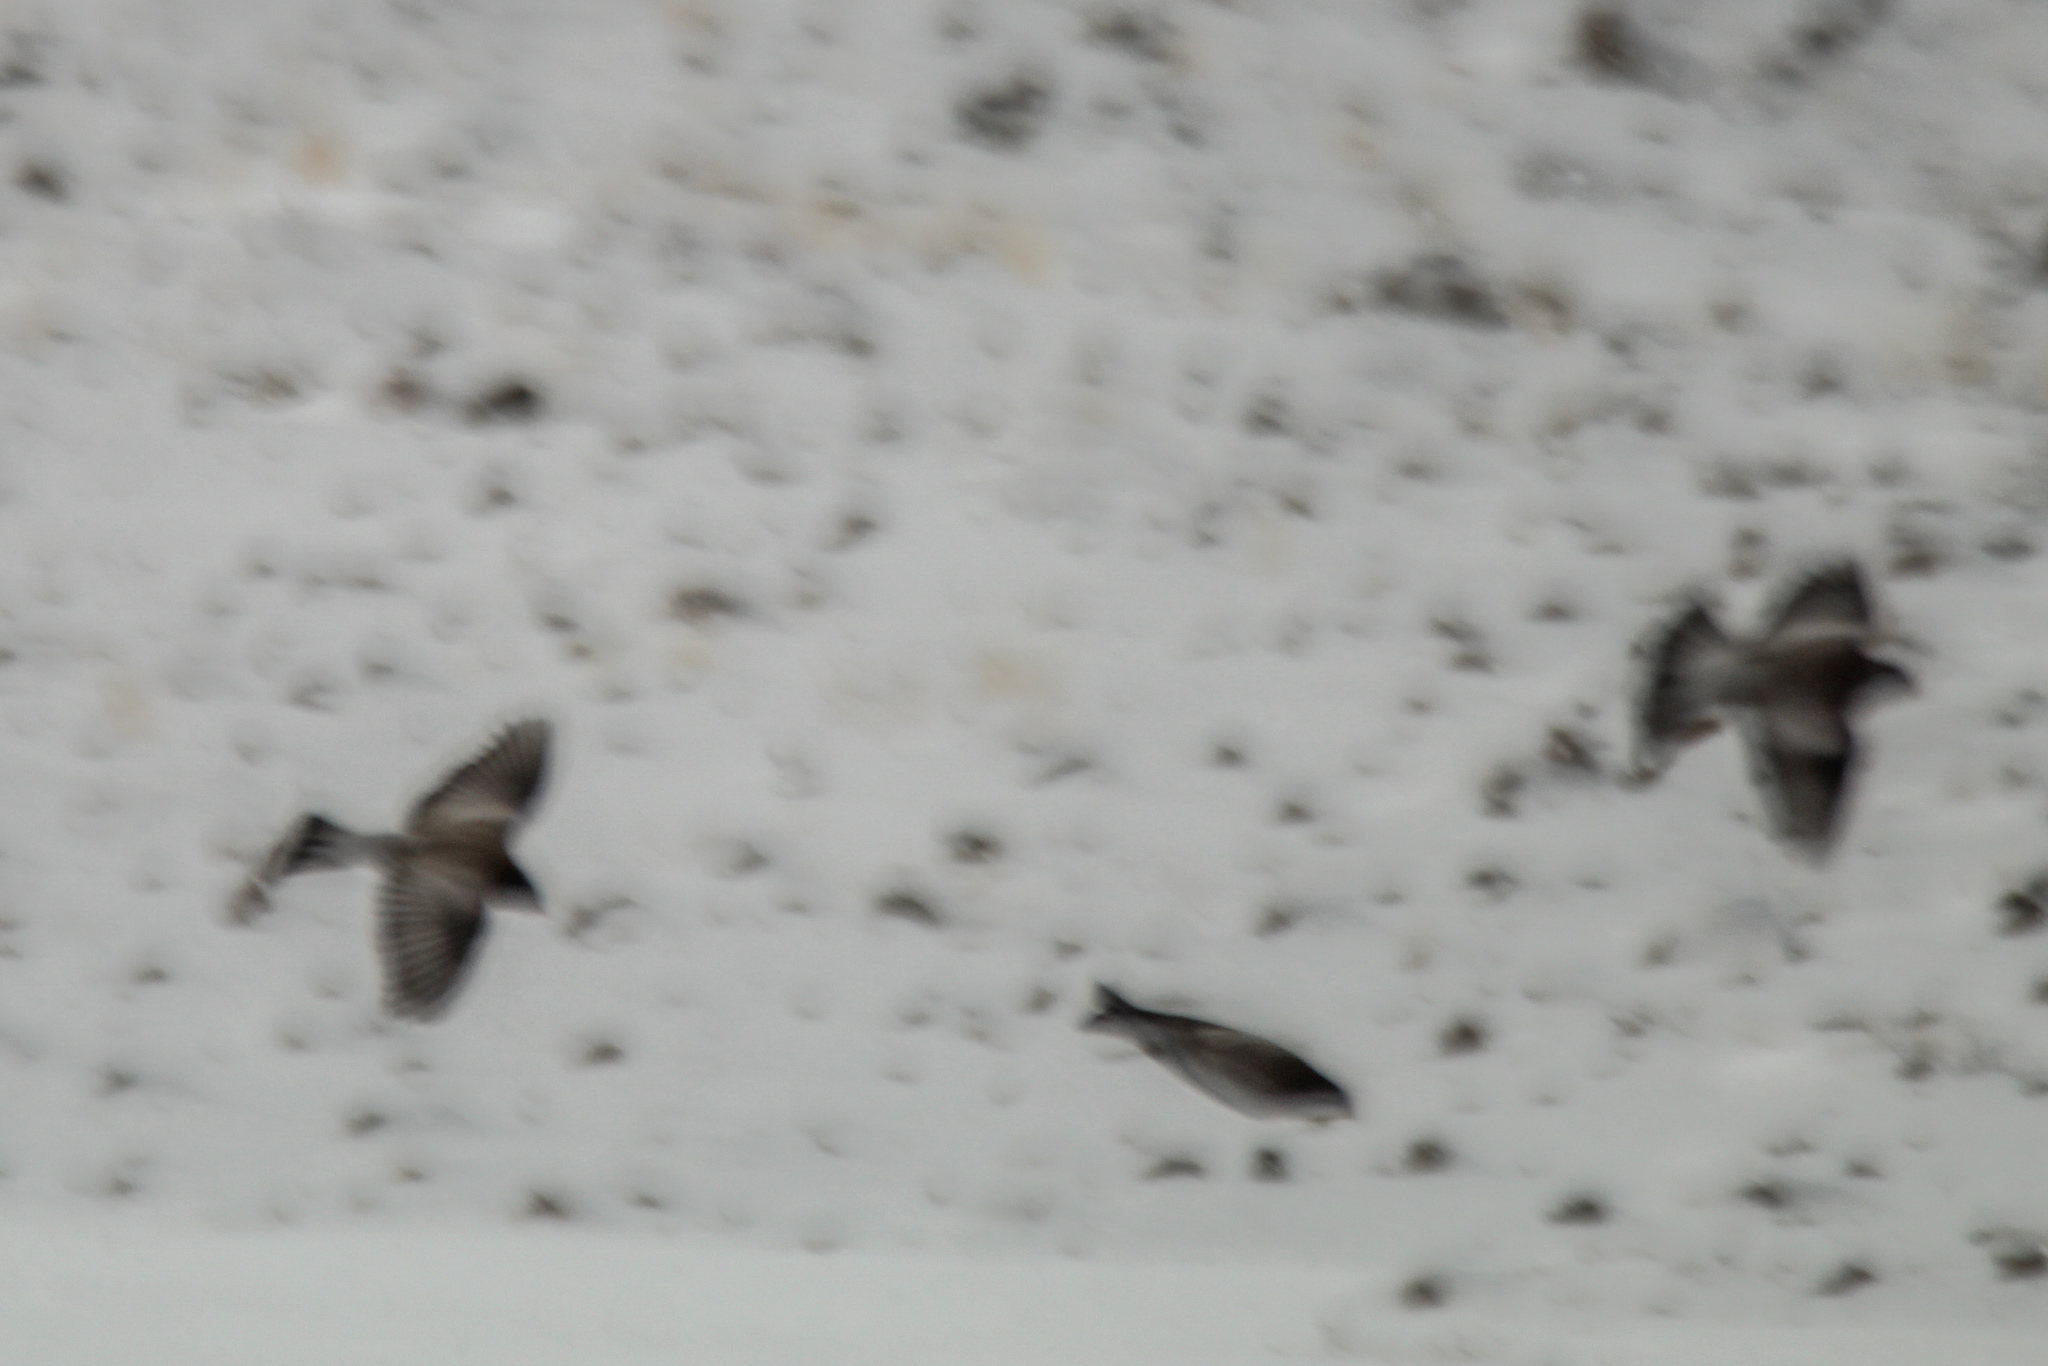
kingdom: Animalia
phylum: Chordata
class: Aves
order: Passeriformes
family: Fringillidae
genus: Leucosticte
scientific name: Leucosticte brandti
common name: Brandt's mountain finch
